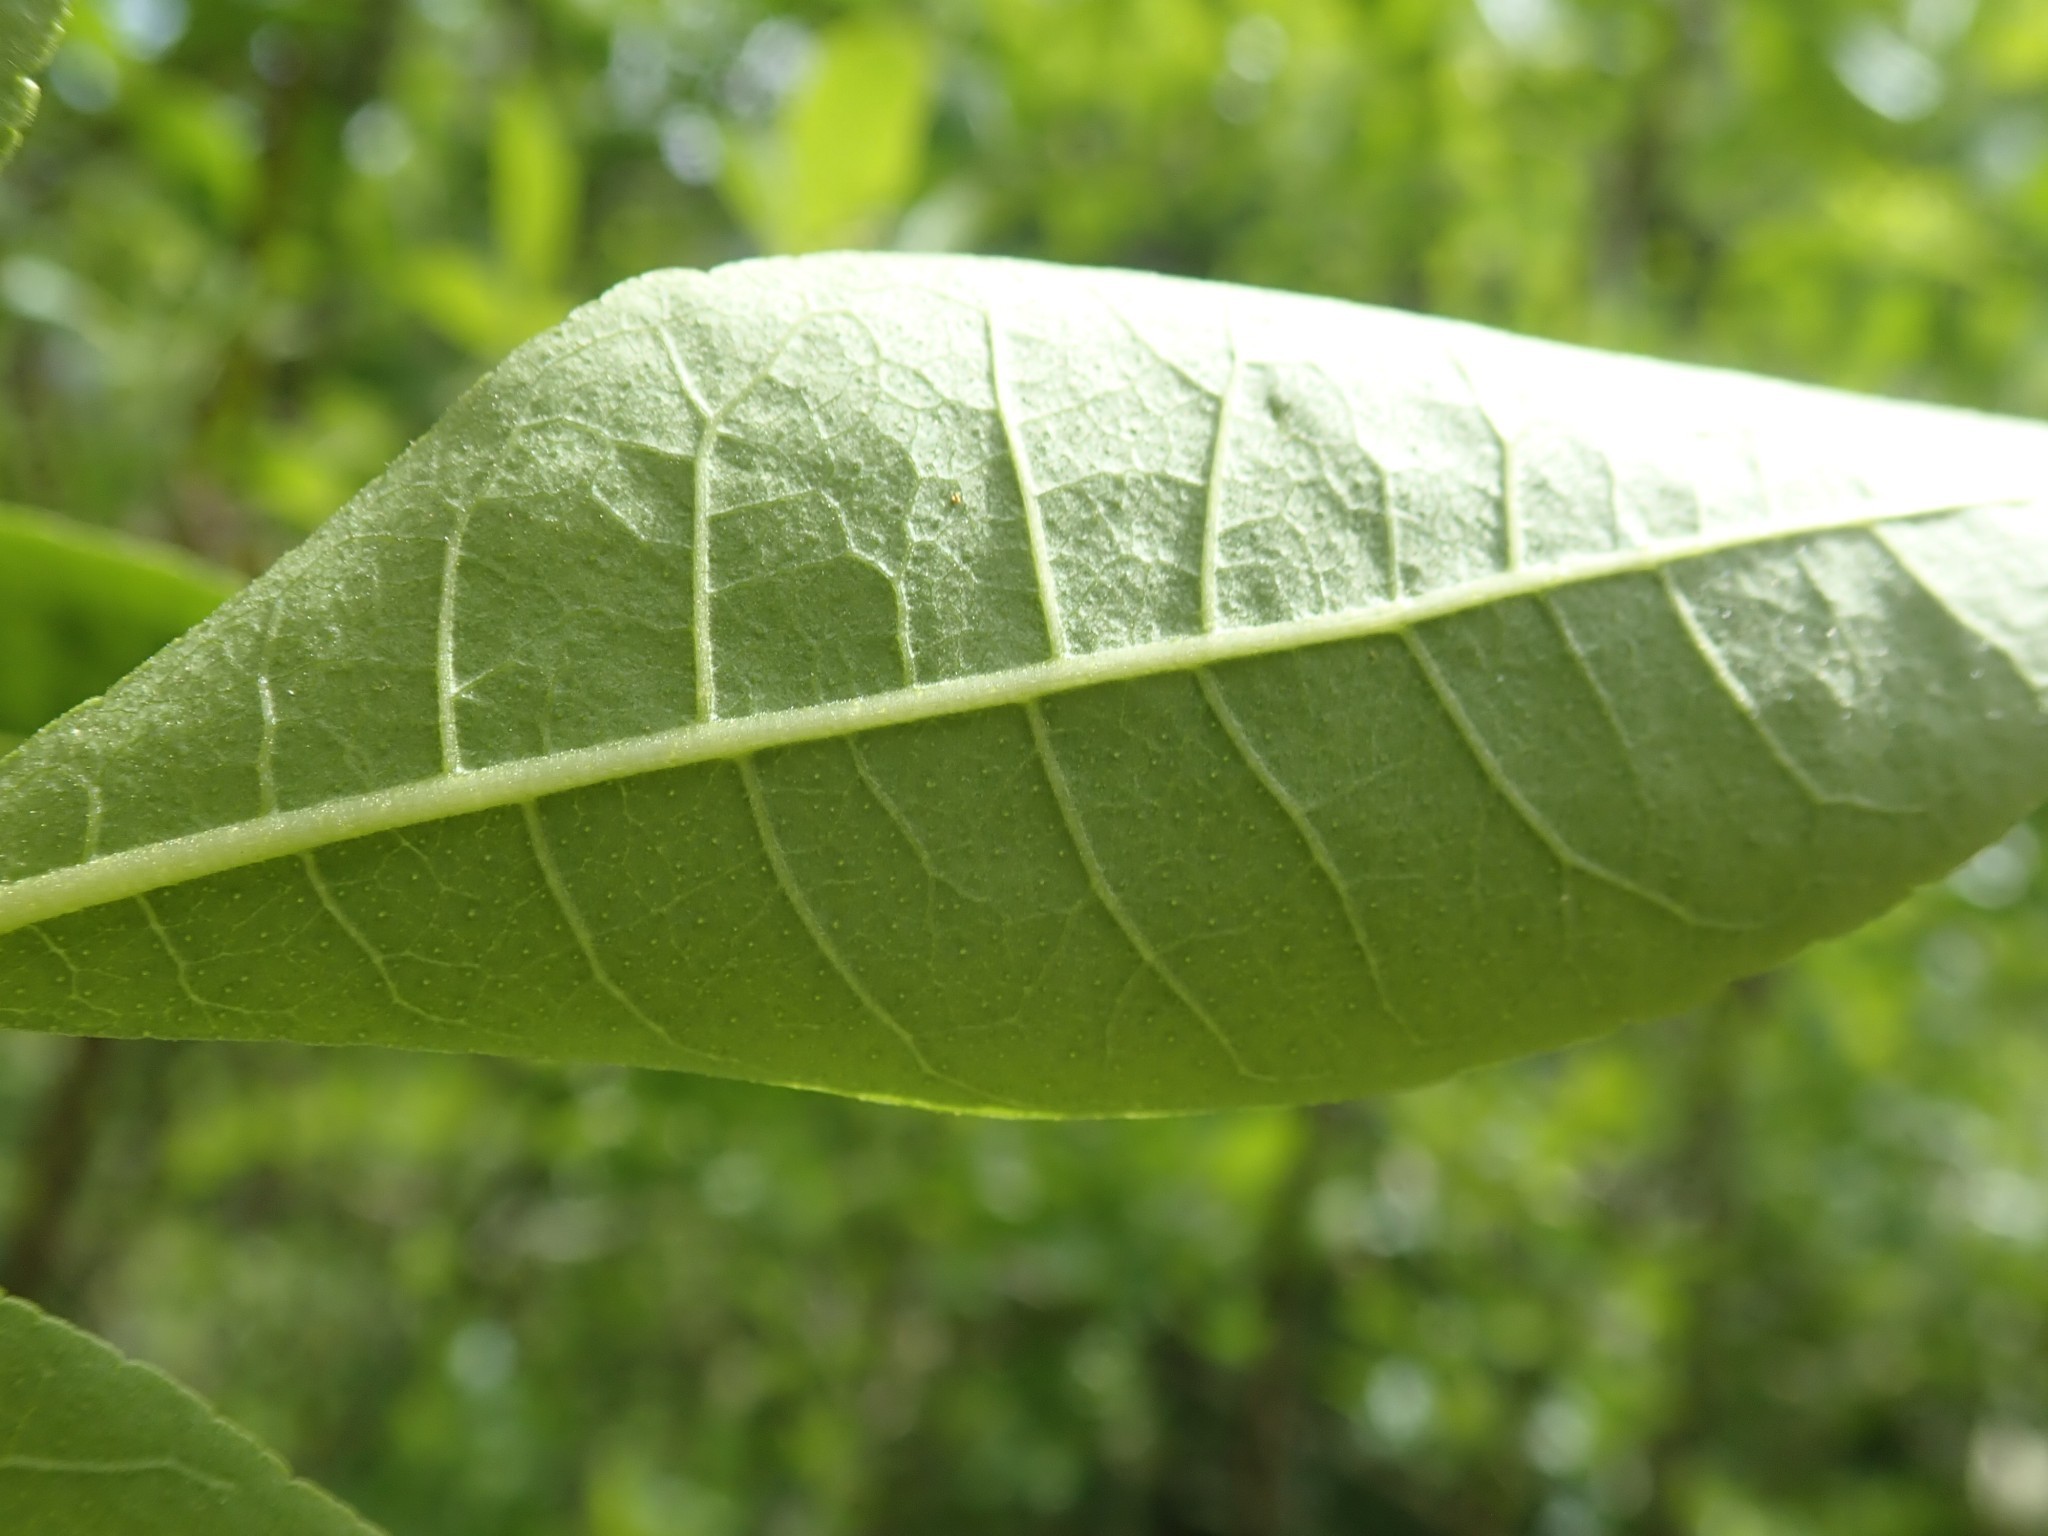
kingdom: Plantae
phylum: Tracheophyta
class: Magnoliopsida
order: Sapindales
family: Rutaceae
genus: Ptelea
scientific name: Ptelea crenulata
